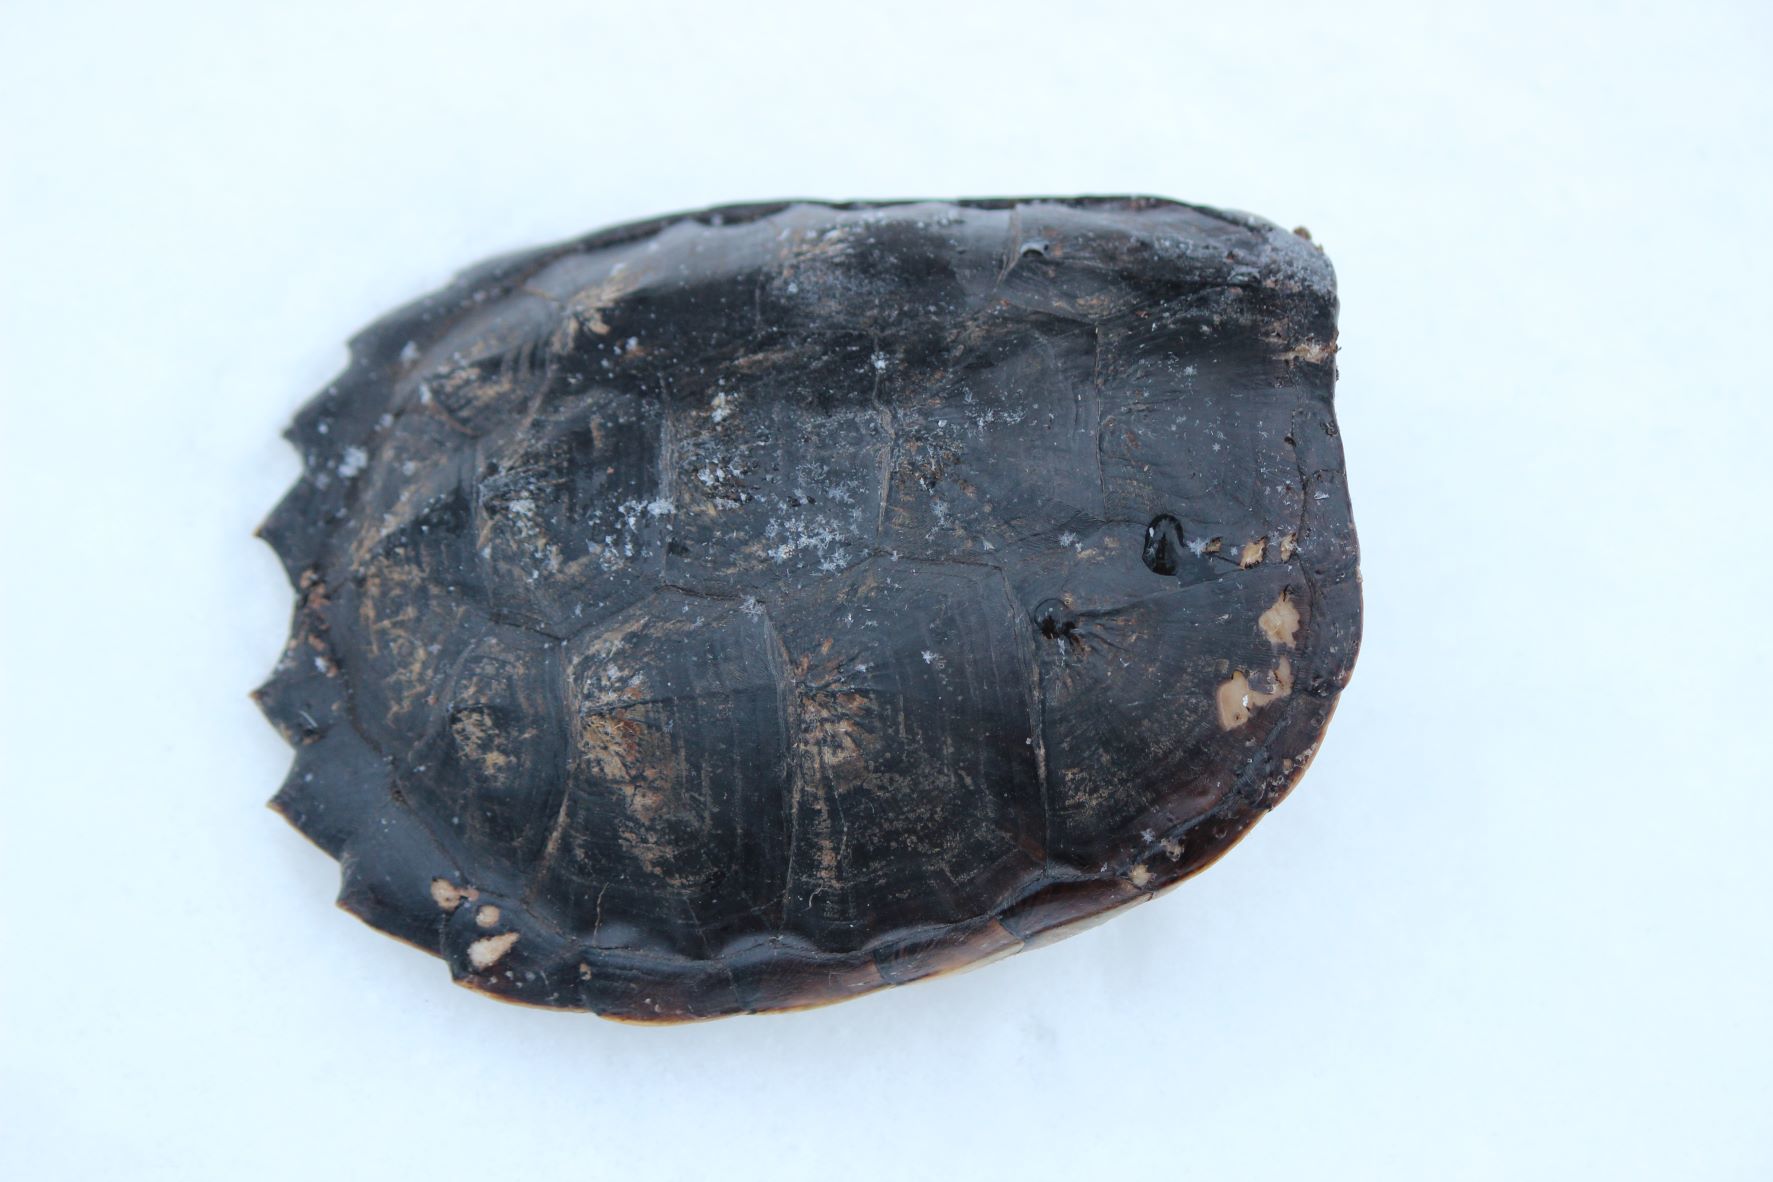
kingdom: Animalia
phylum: Chordata
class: Testudines
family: Chelydridae
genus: Chelydra
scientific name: Chelydra serpentina
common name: Common snapping turtle
